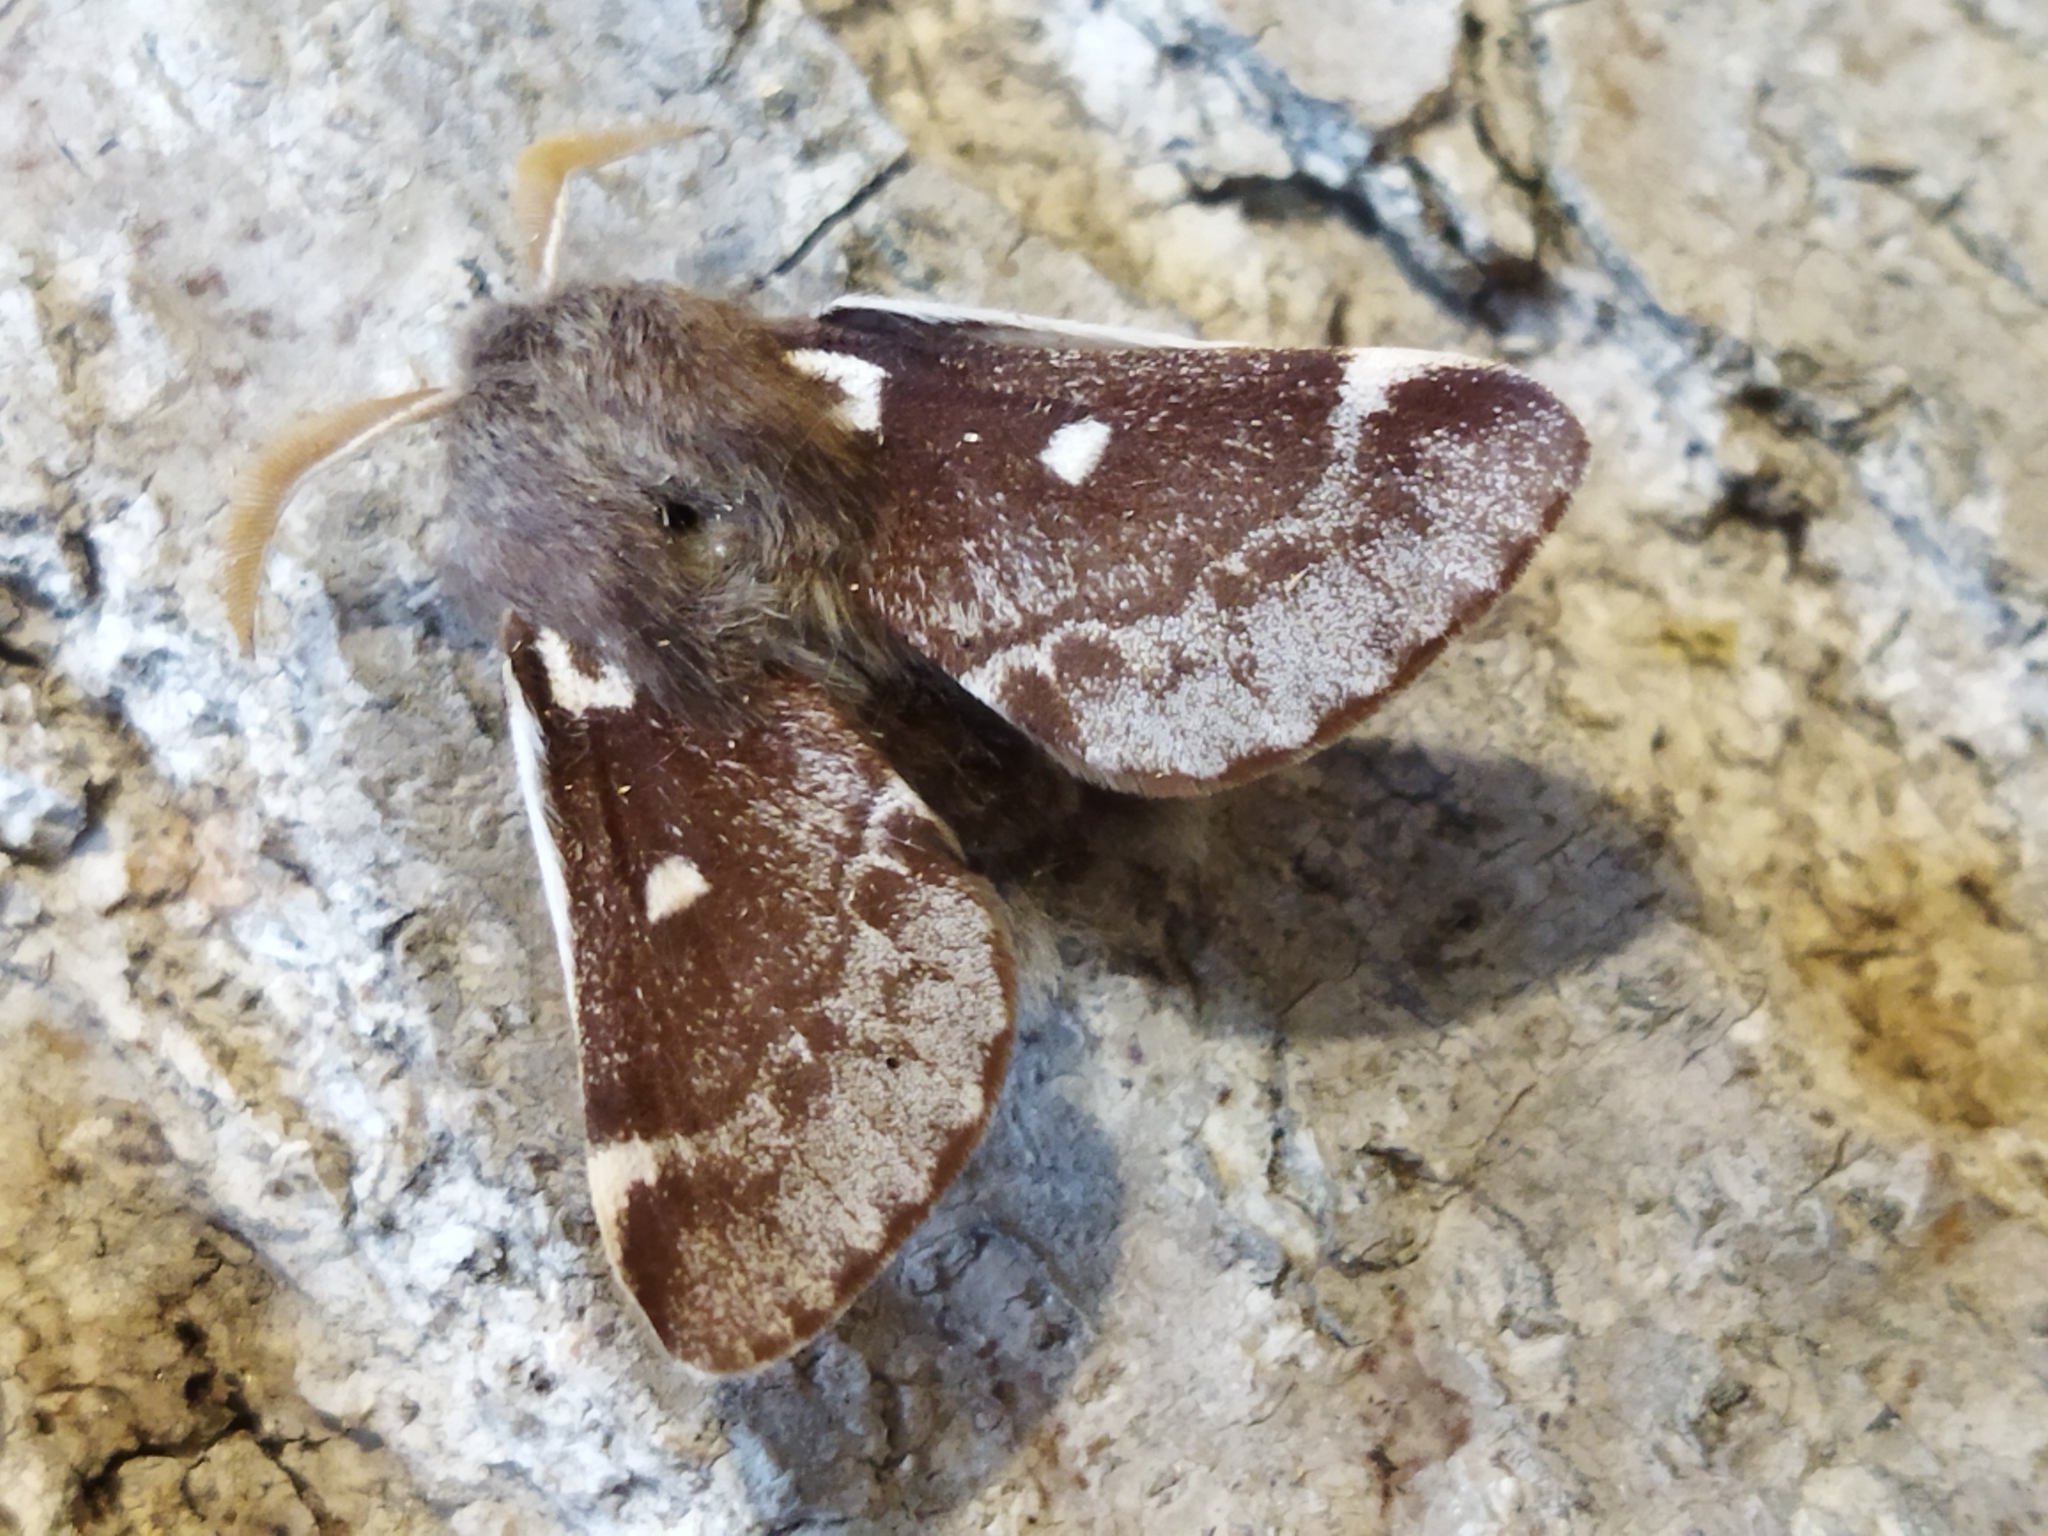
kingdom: Animalia
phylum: Arthropoda
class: Insecta
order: Lepidoptera
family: Lasiocampidae
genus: Eriogaster
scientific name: Eriogaster lanestris
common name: Small eggar
